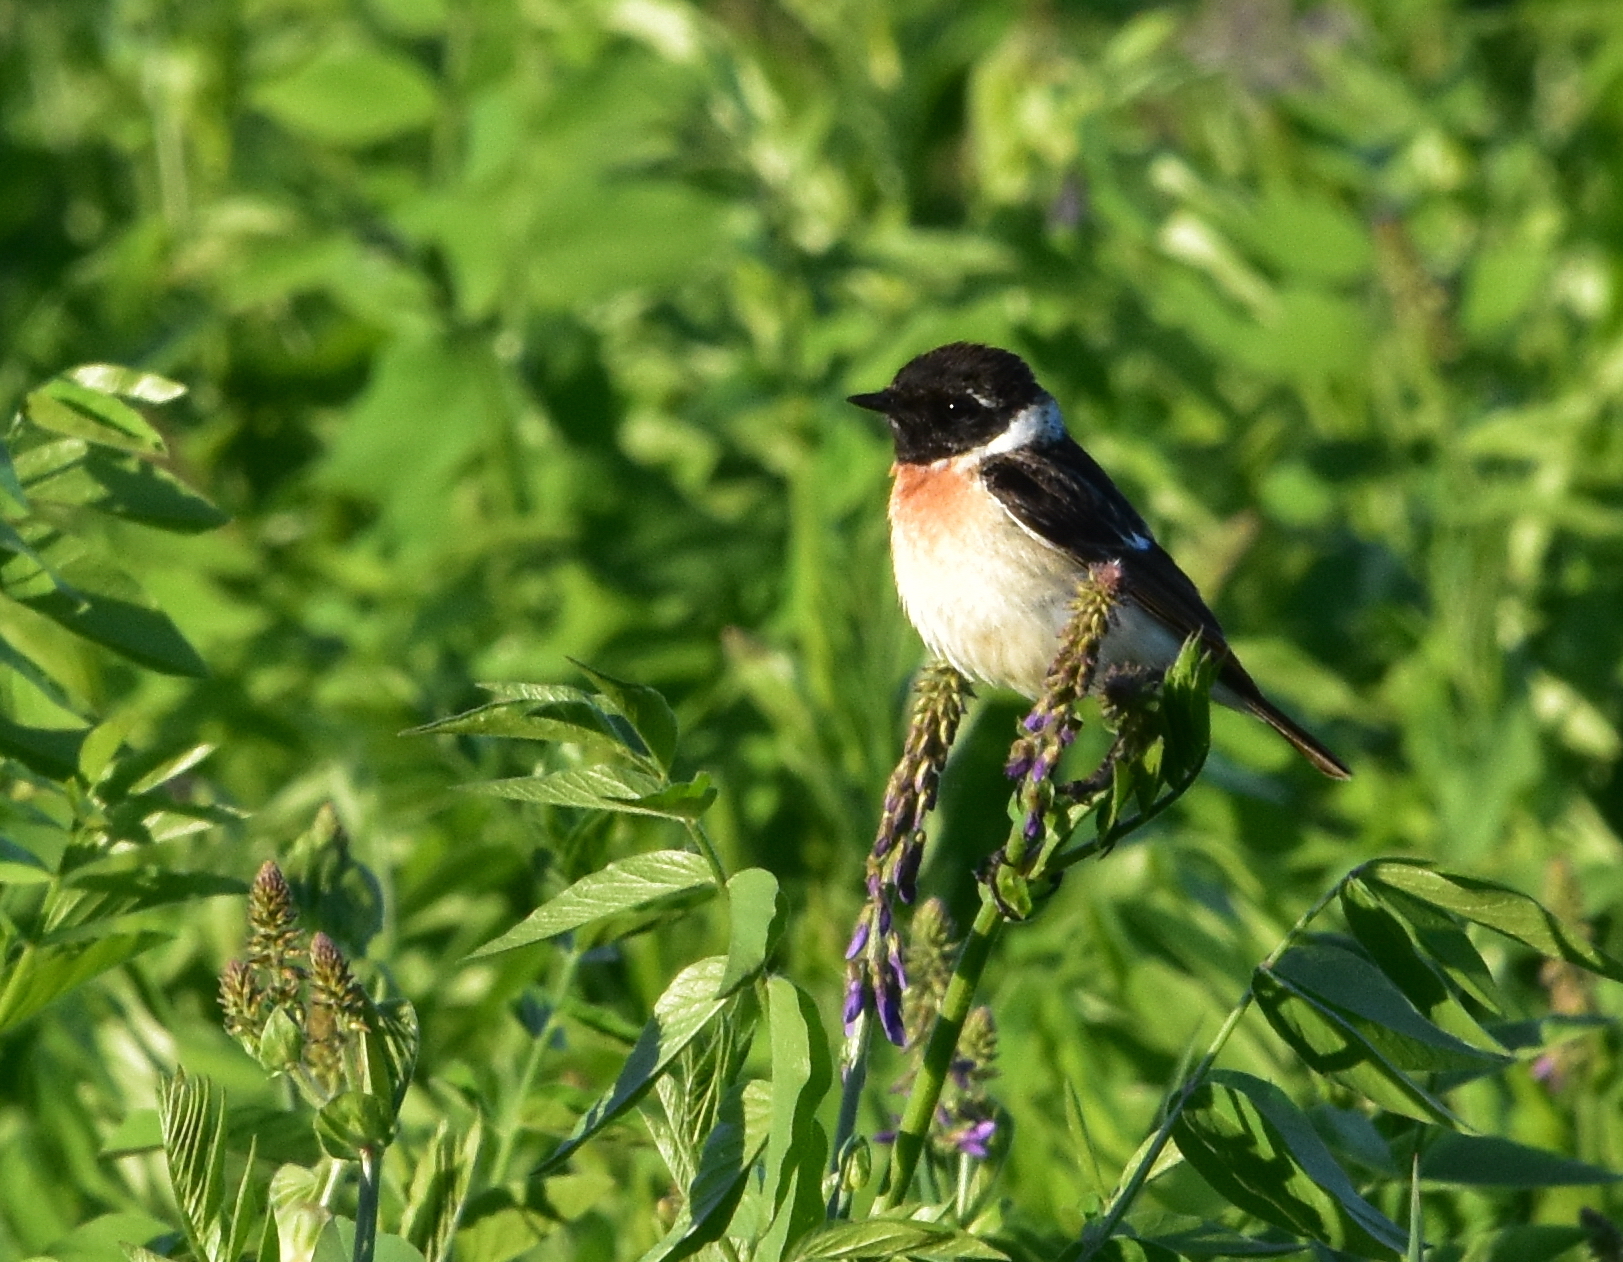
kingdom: Animalia
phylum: Chordata
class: Aves
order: Passeriformes
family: Muscicapidae
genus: Saxicola
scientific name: Saxicola maurus
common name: Siberian stonechat
